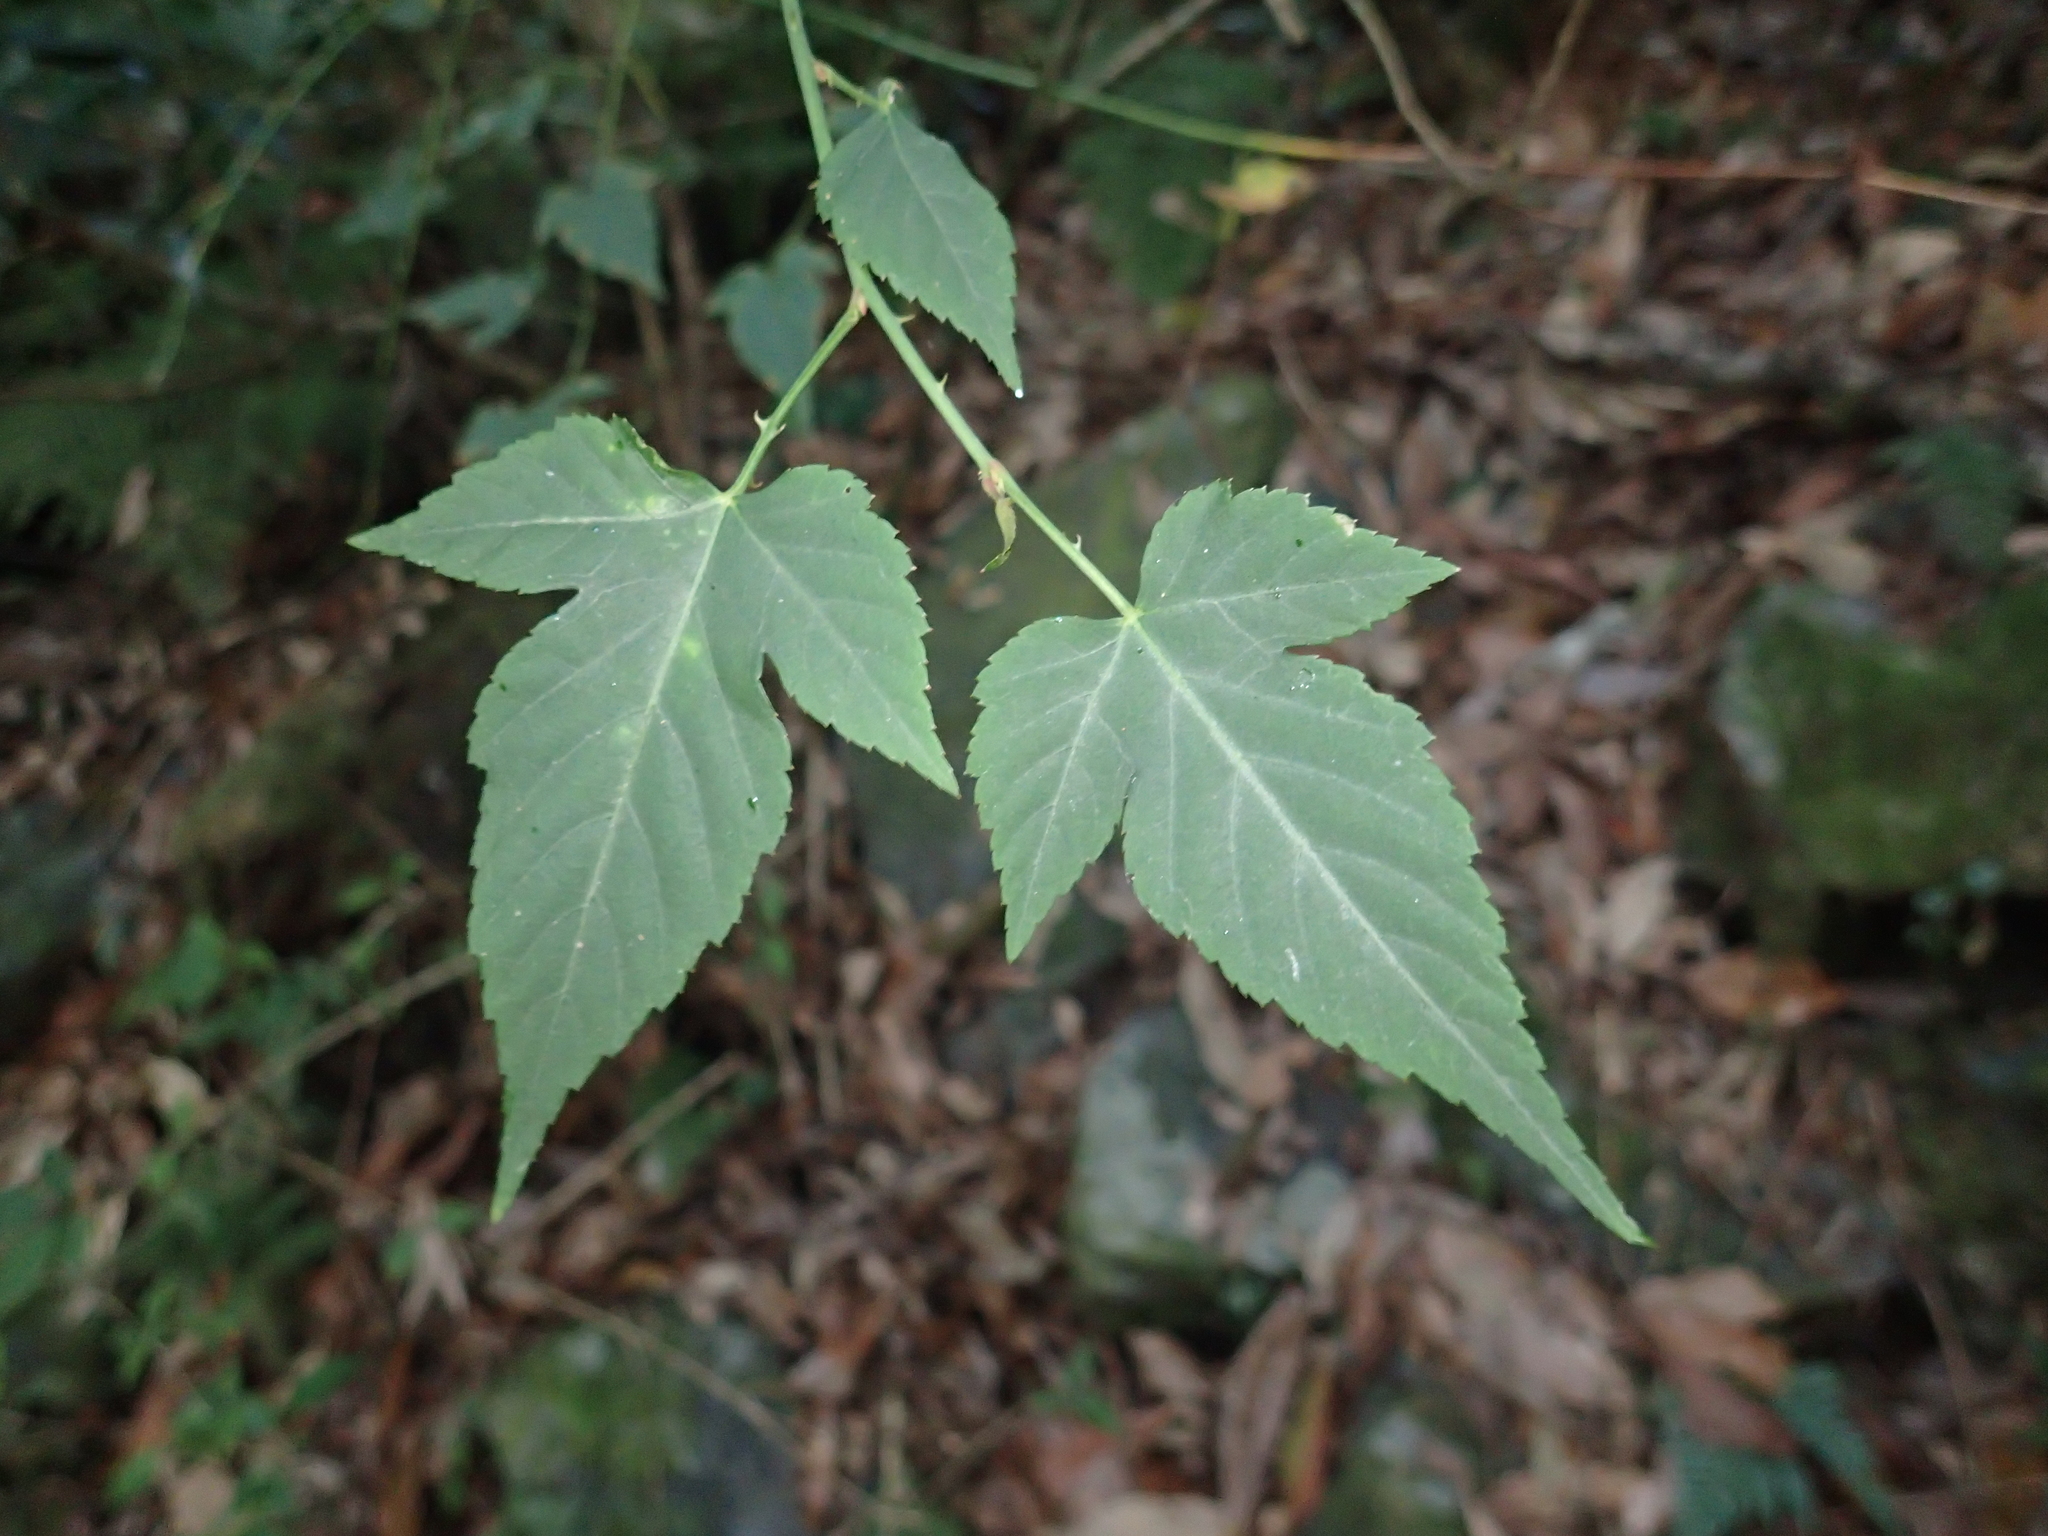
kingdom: Plantae
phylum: Tracheophyta
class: Magnoliopsida
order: Rosales
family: Rosaceae
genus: Rubus
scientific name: Rubus corchorifolius
